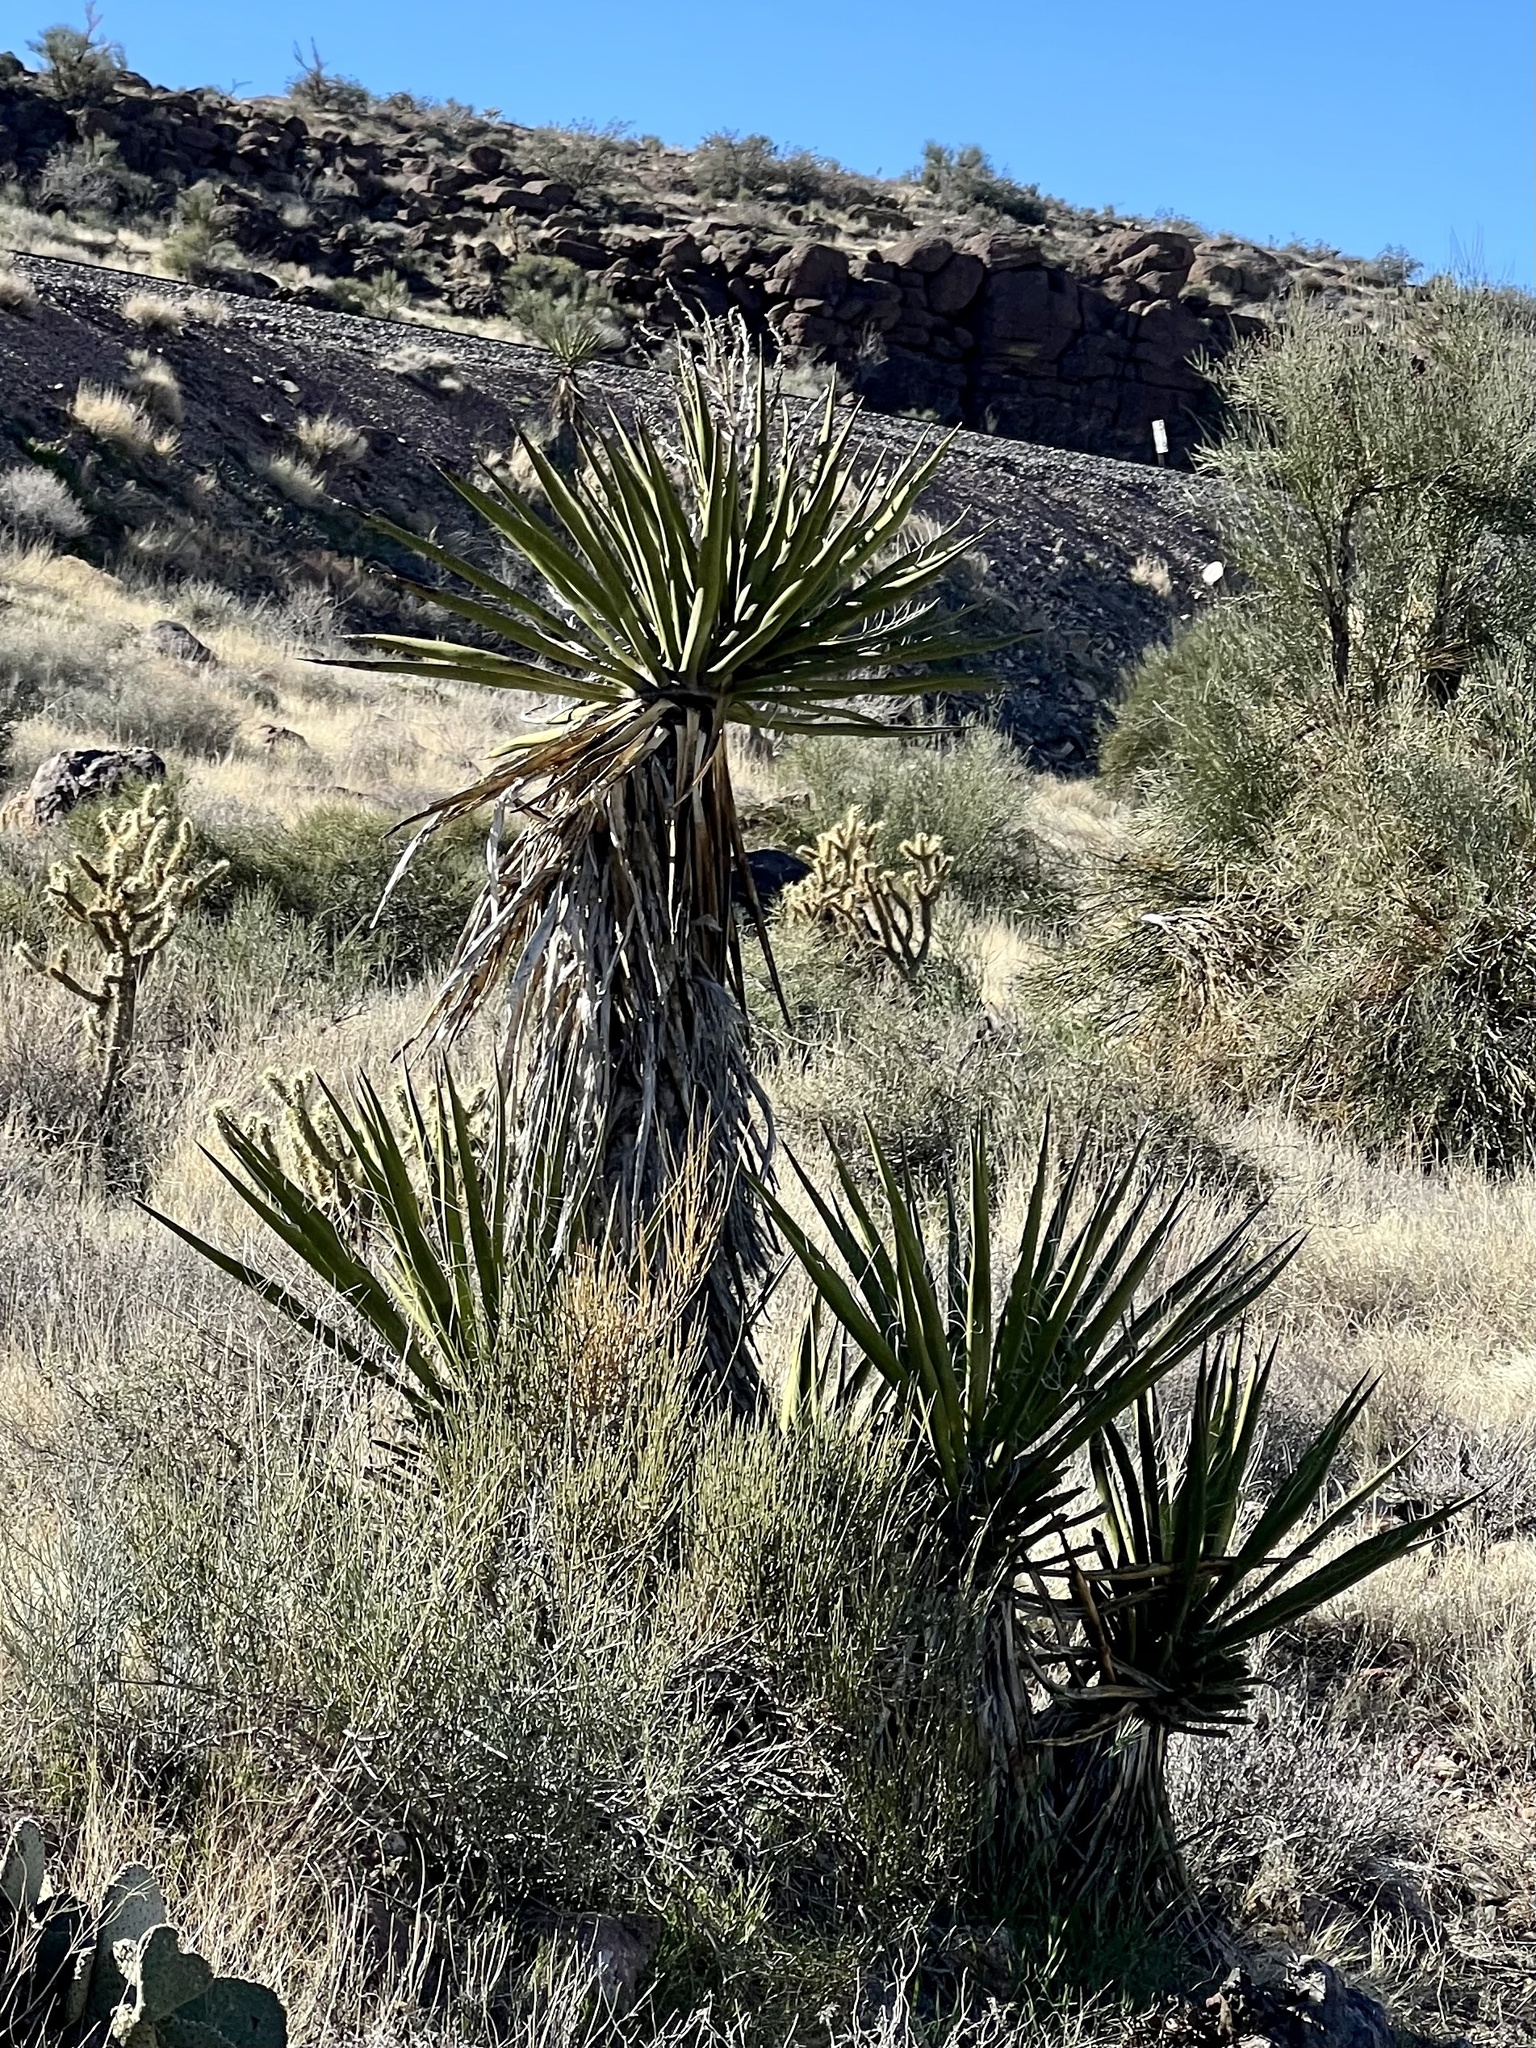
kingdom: Plantae
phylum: Tracheophyta
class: Liliopsida
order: Asparagales
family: Asparagaceae
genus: Yucca
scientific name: Yucca schidigera
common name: Mojave yucca
